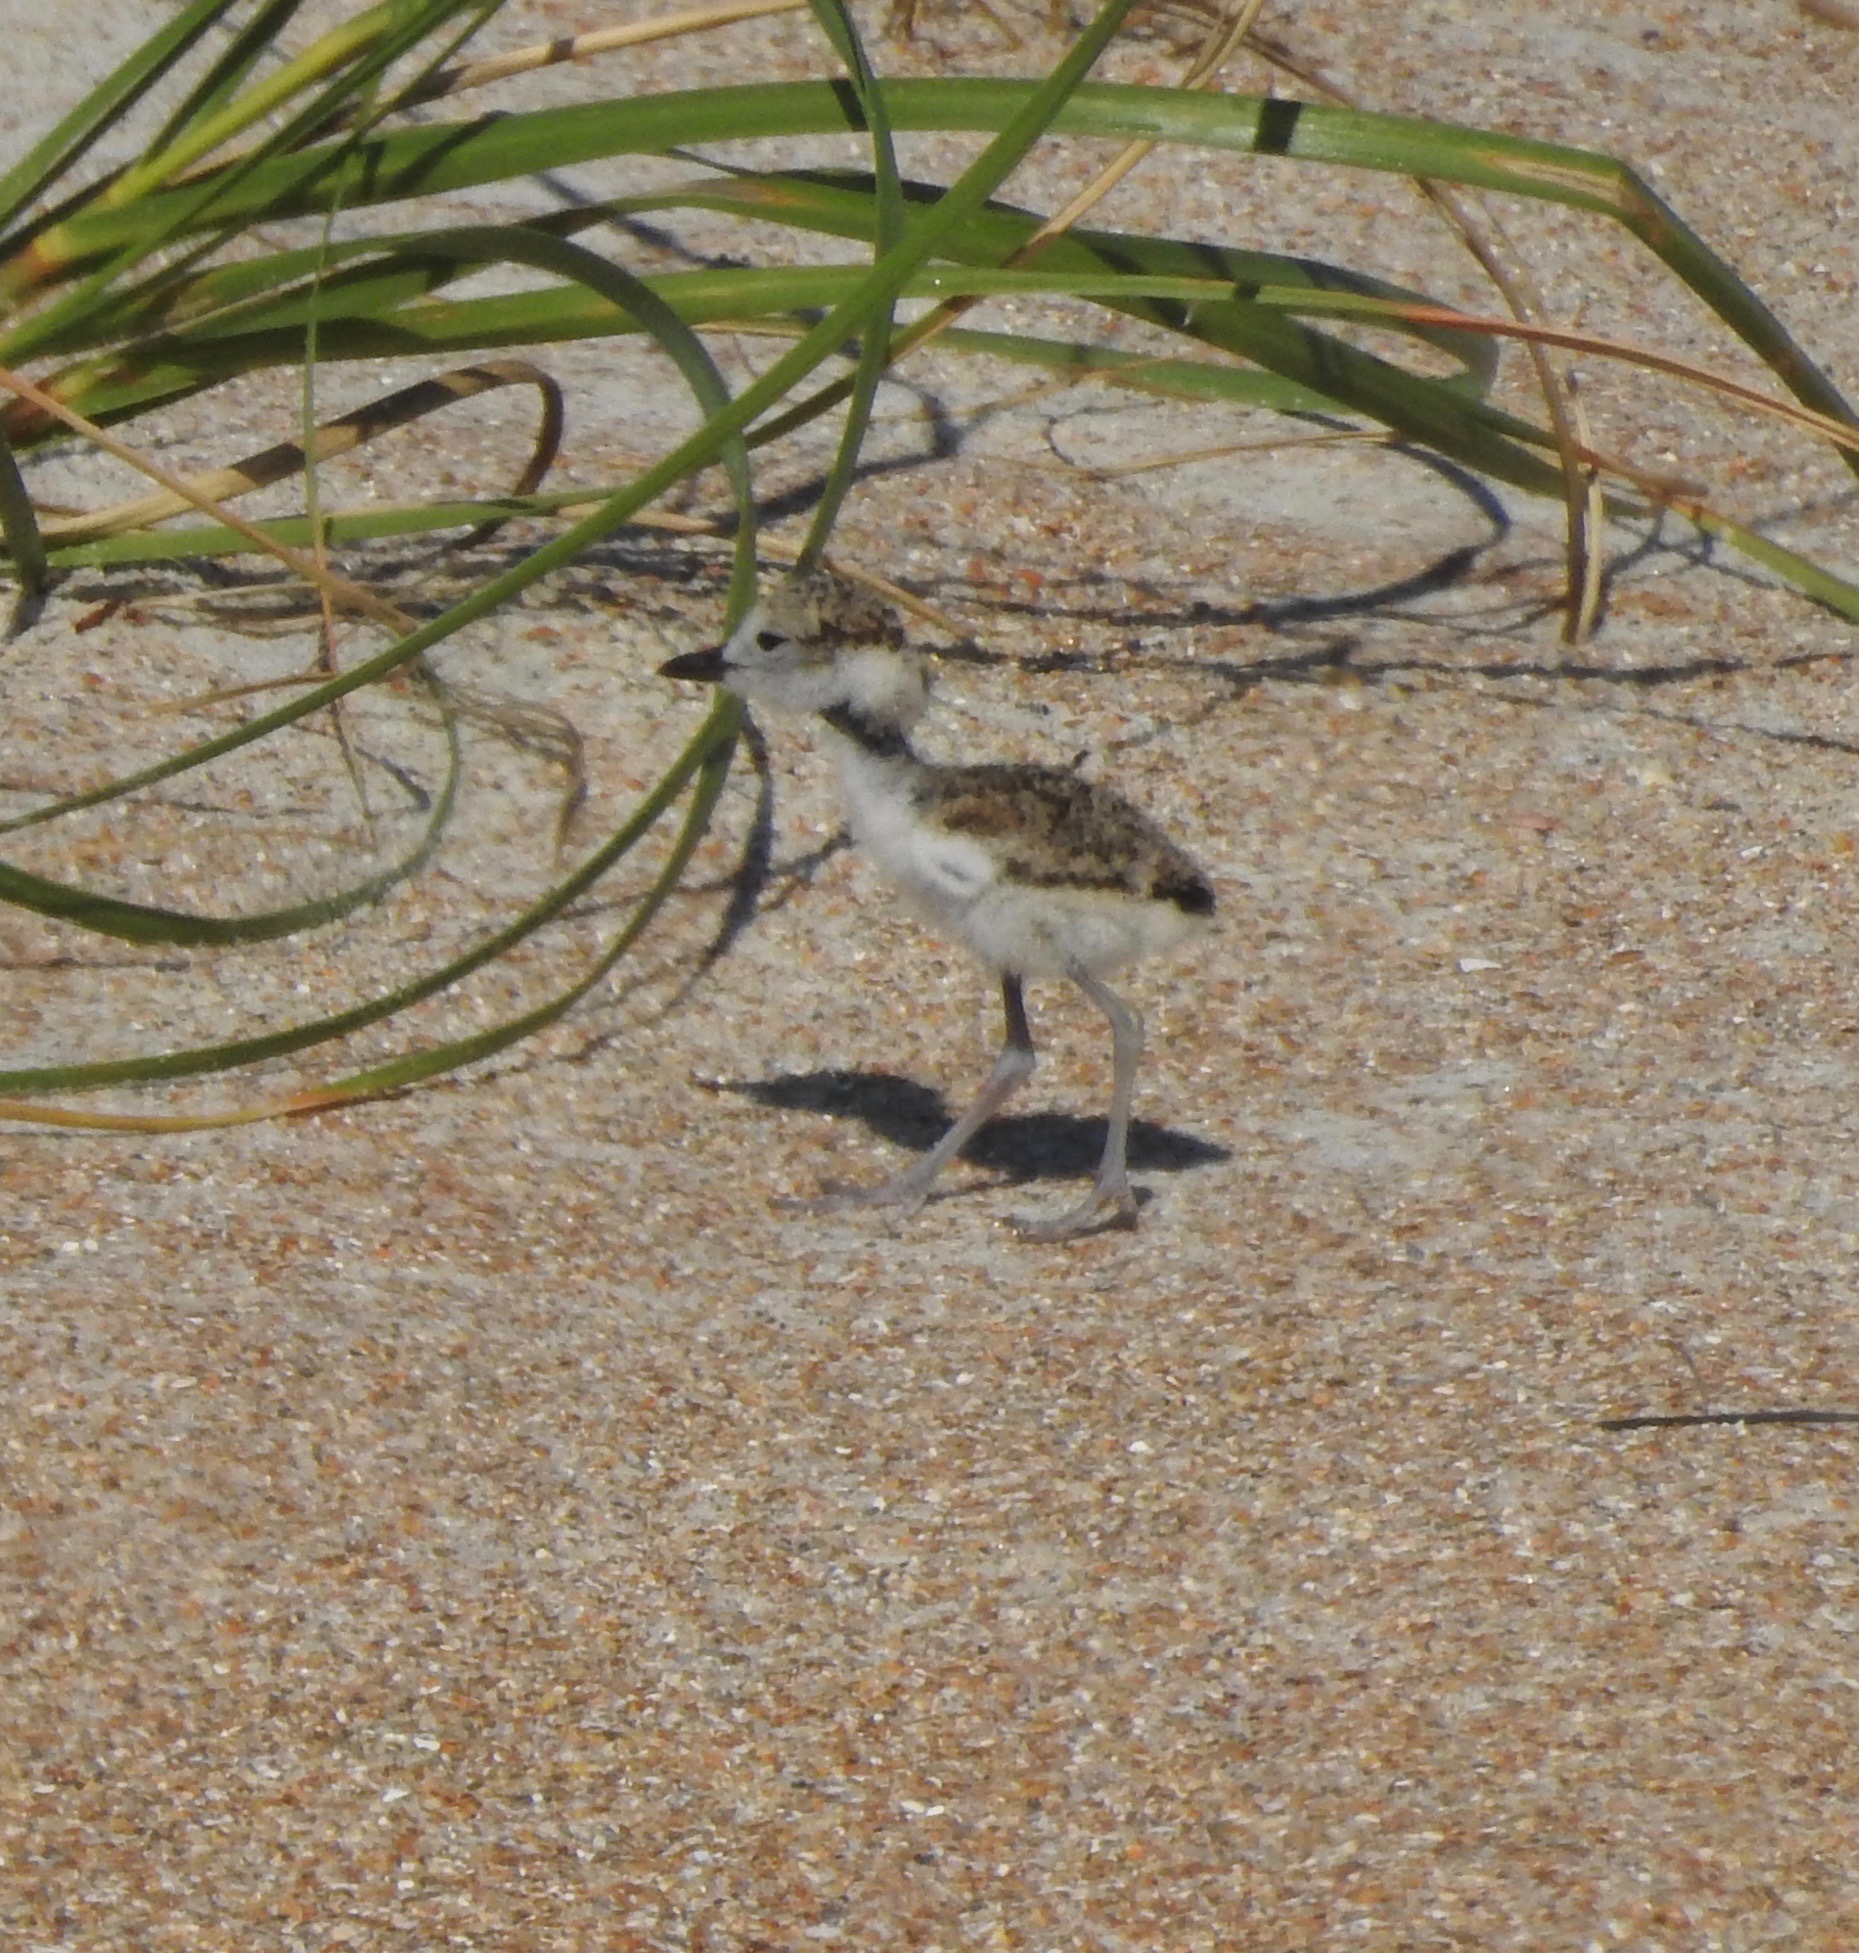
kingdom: Animalia
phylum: Chordata
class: Aves
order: Charadriiformes
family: Charadriidae
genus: Anarhynchus
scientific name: Anarhynchus
